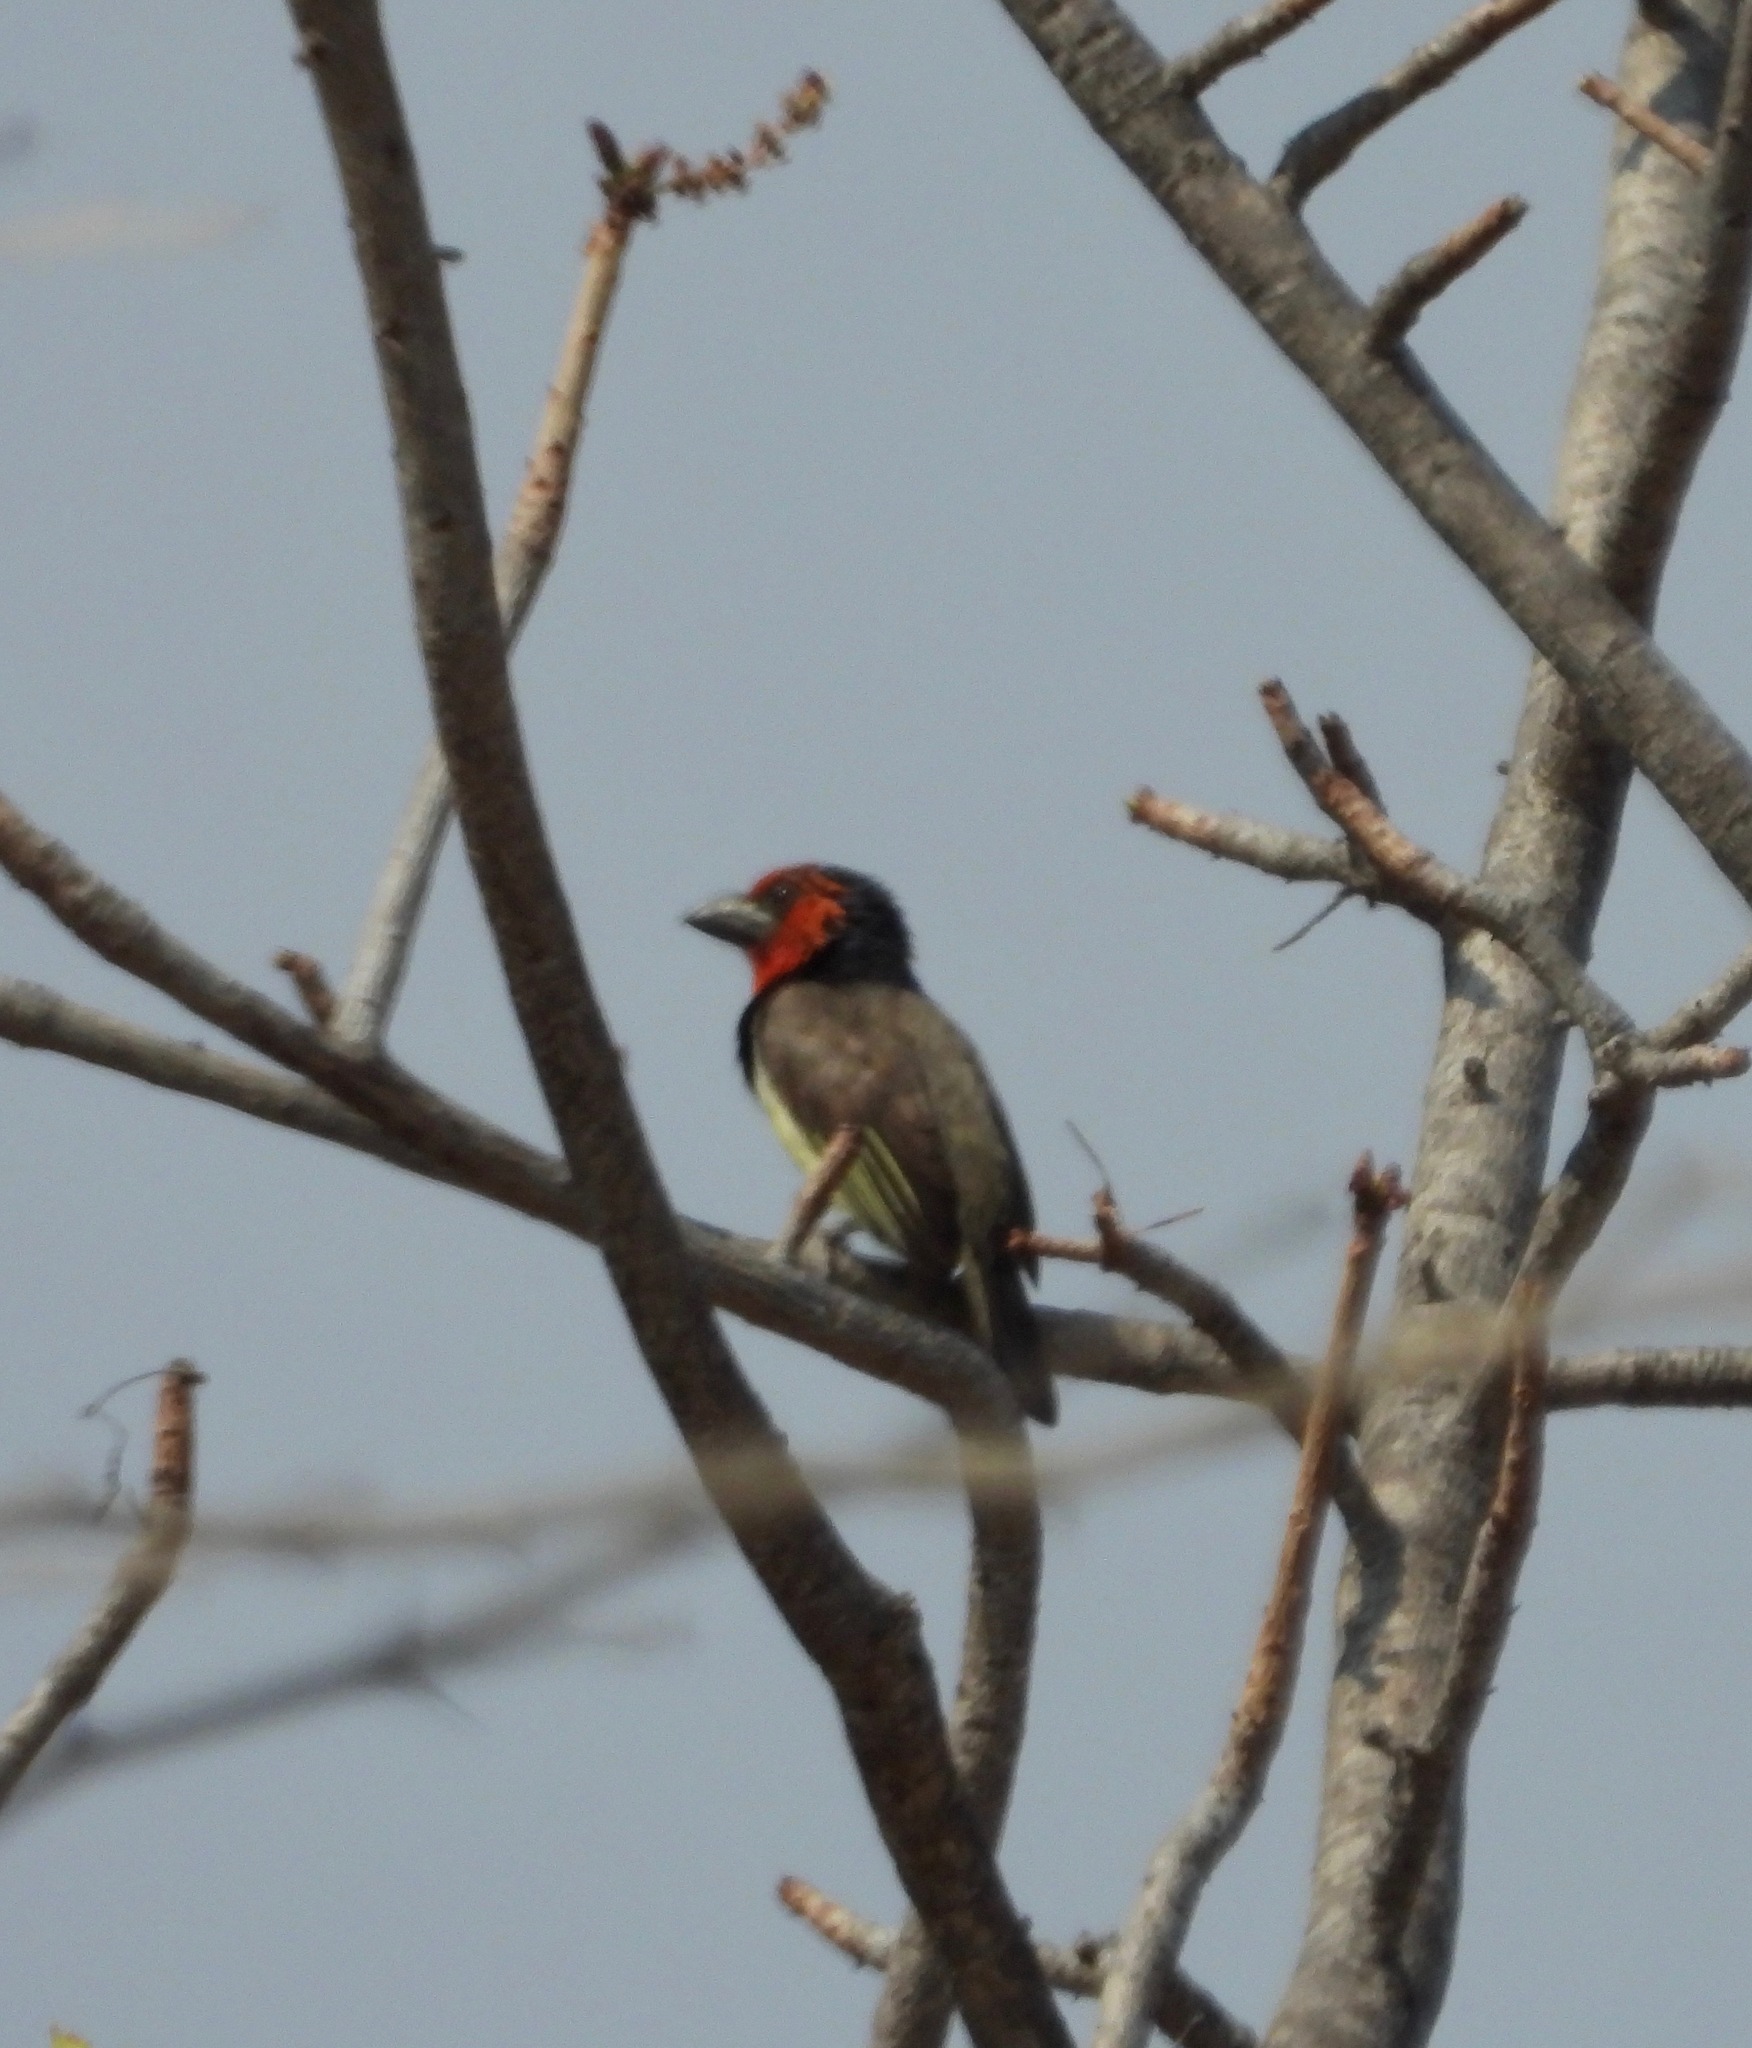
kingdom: Animalia
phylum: Chordata
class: Aves
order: Piciformes
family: Lybiidae
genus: Lybius
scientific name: Lybius torquatus
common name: Black-collared barbet
